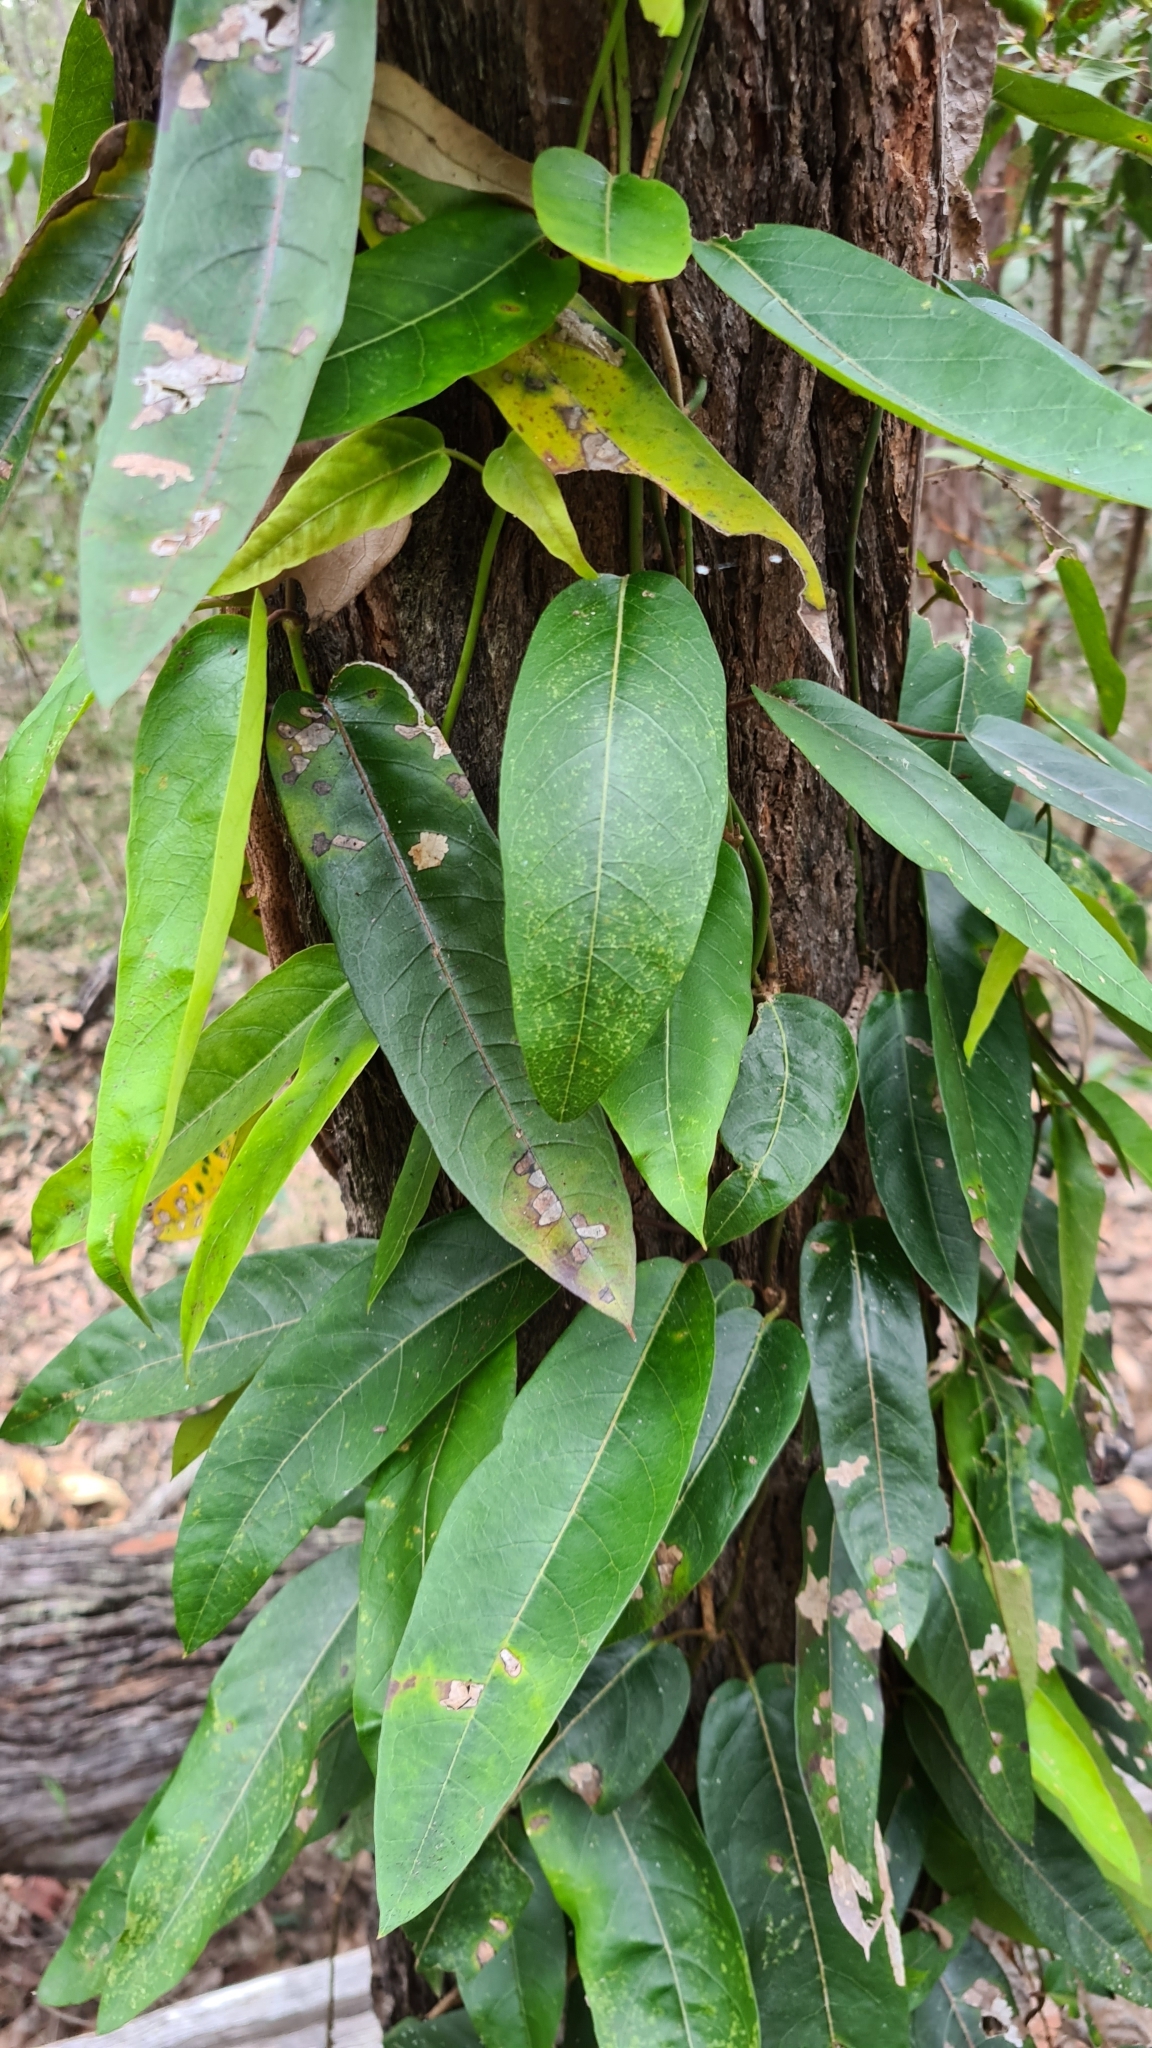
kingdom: Plantae
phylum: Tracheophyta
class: Magnoliopsida
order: Gentianales
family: Apocynaceae
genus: Parsonsia
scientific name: Parsonsia straminea
